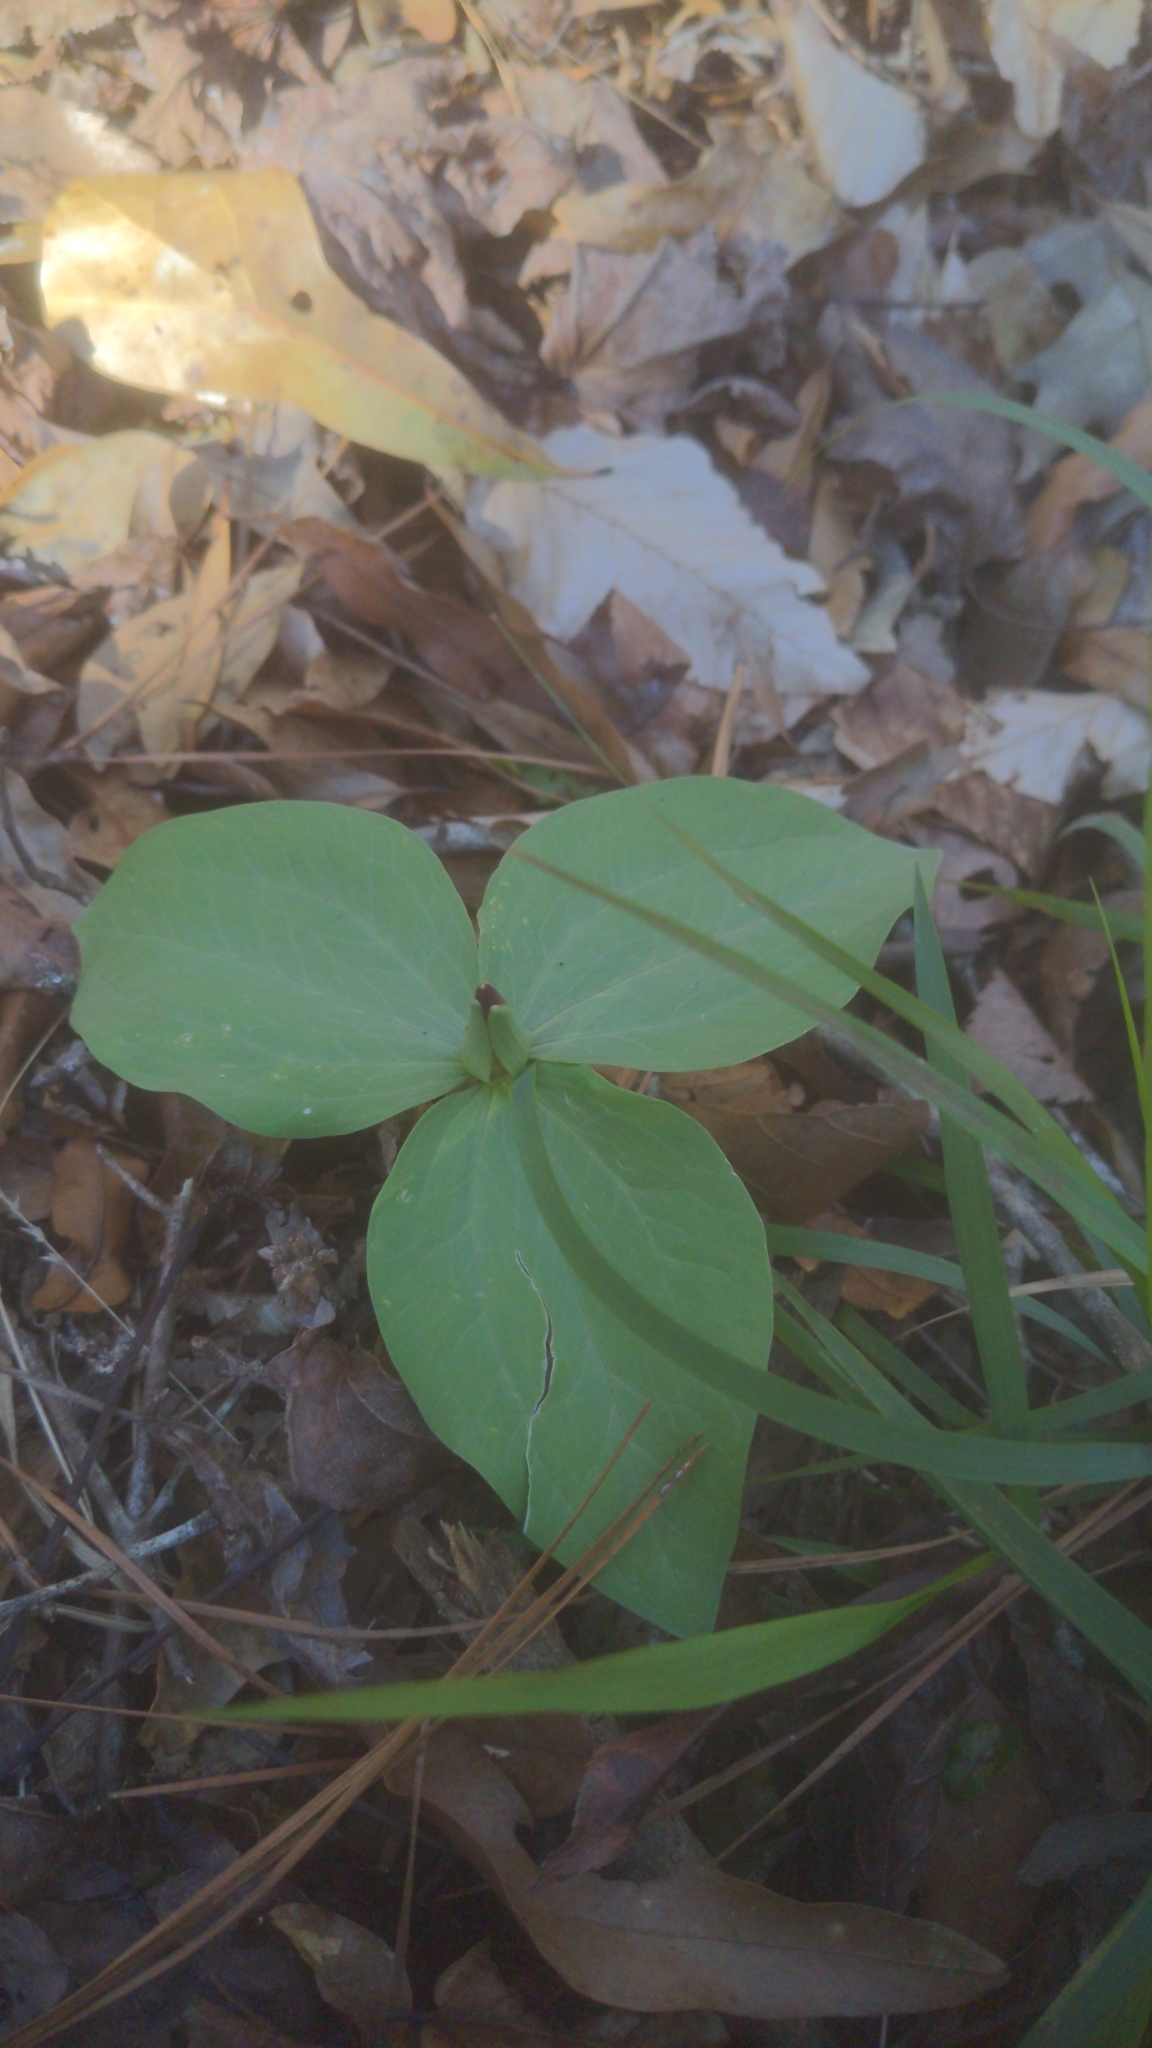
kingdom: Plantae
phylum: Tracheophyta
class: Liliopsida
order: Liliales
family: Melanthiaceae
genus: Trillium
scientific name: Trillium foetidissimum
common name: Mississippi river trillium
